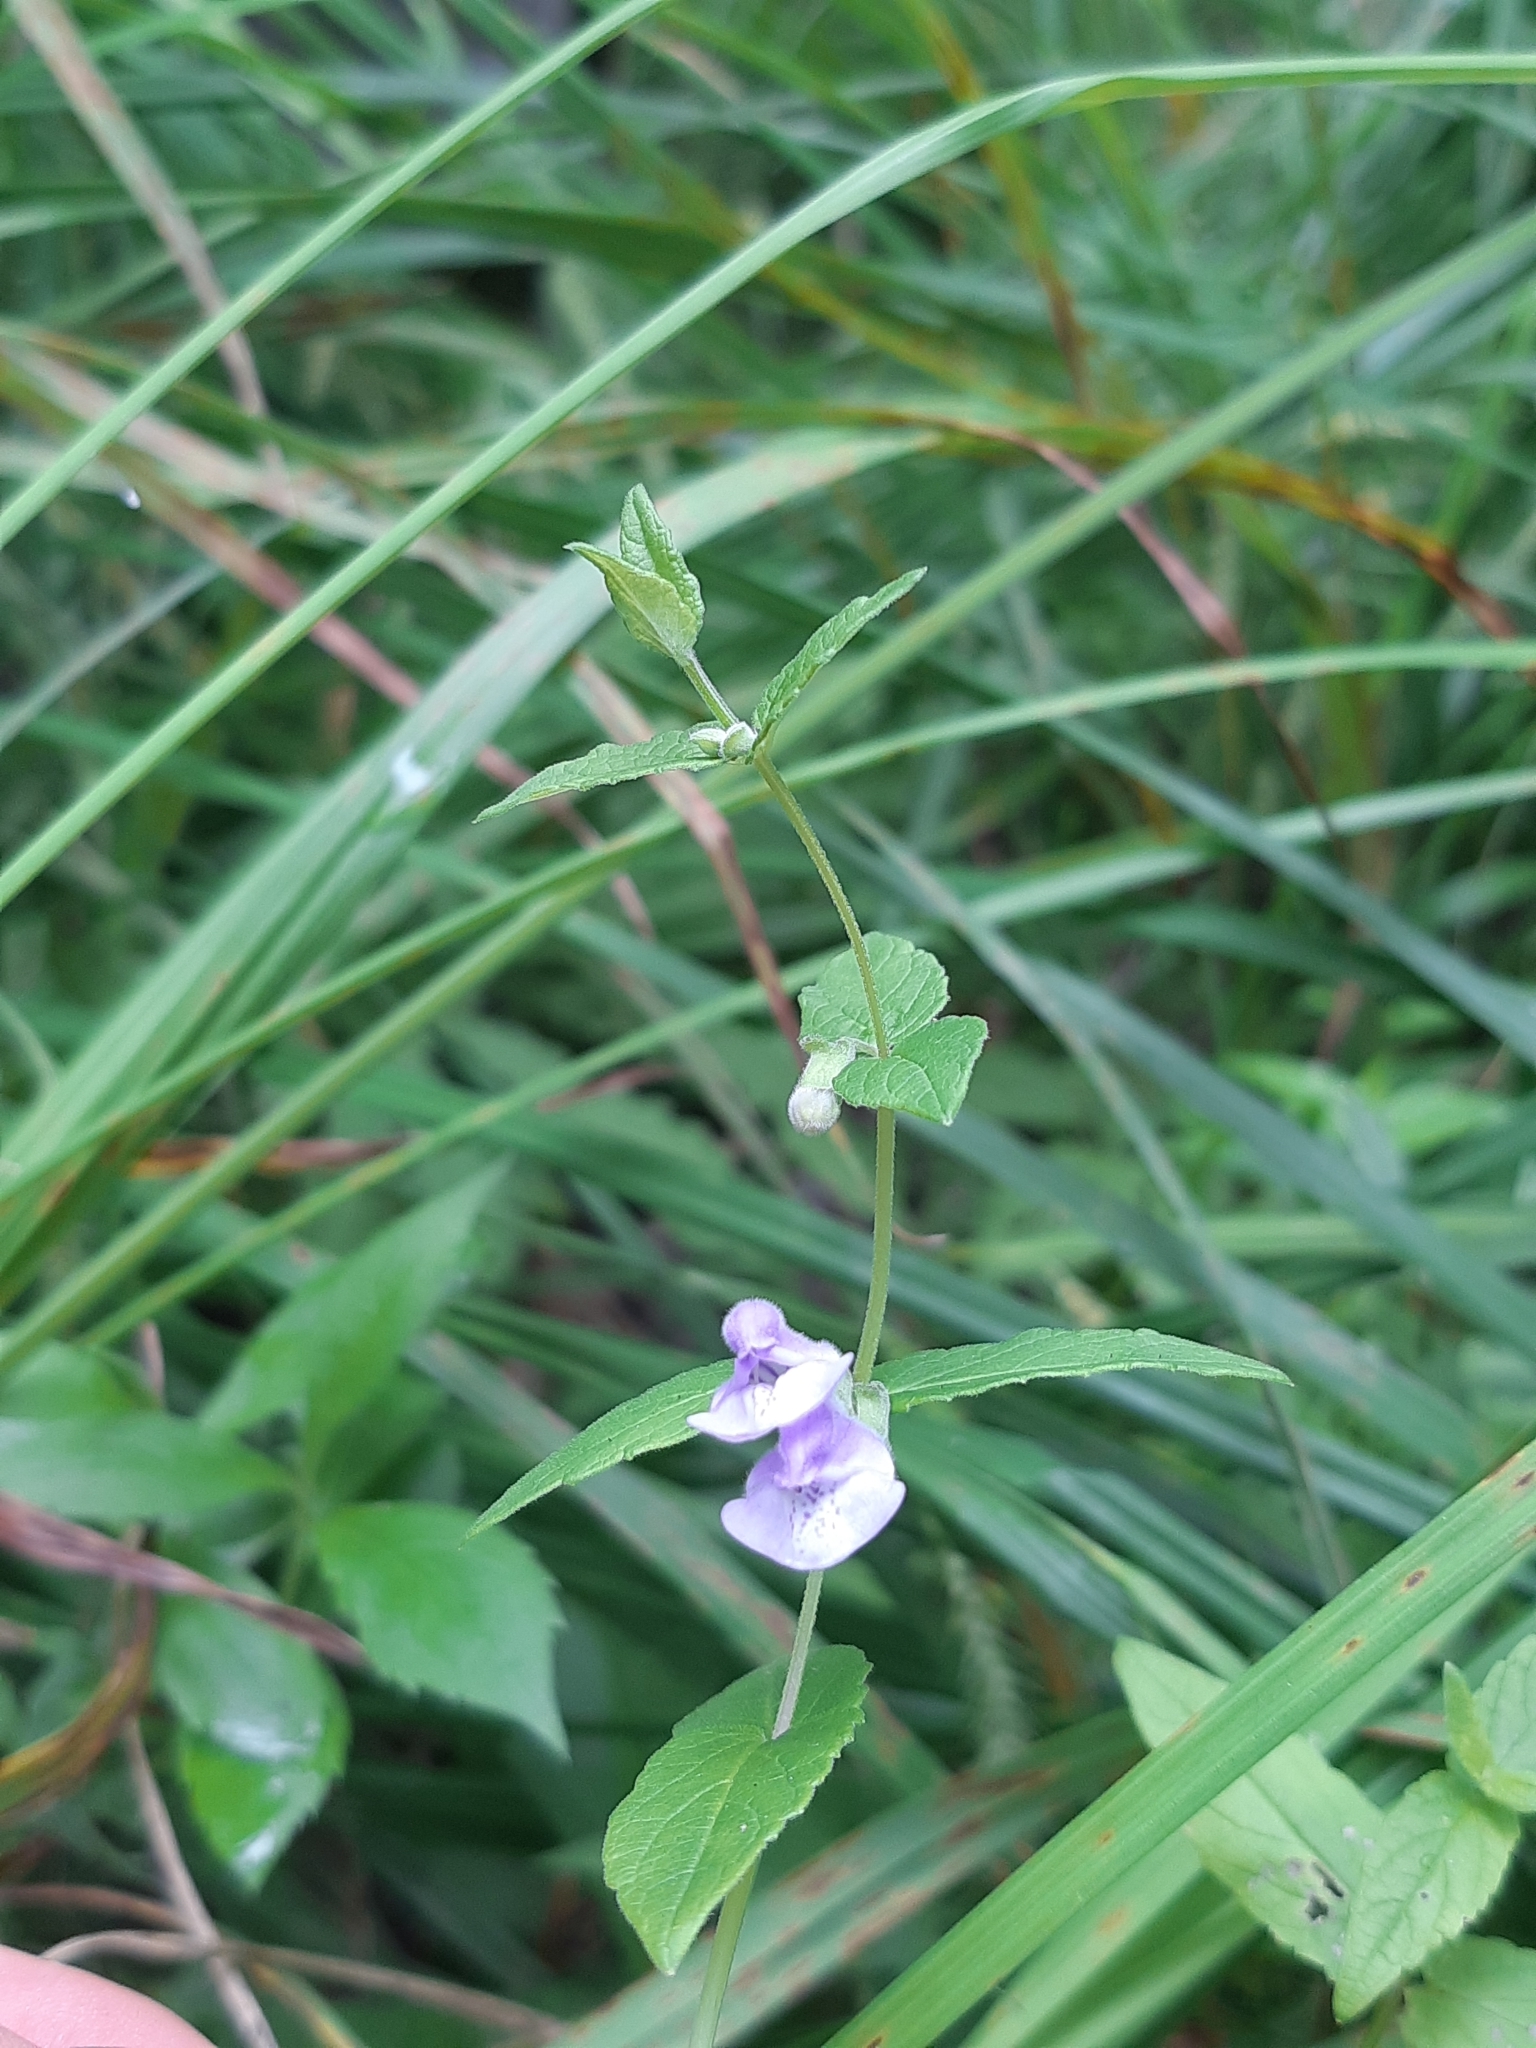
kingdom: Plantae
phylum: Tracheophyta
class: Magnoliopsida
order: Lamiales
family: Lamiaceae
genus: Scutellaria
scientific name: Scutellaria galericulata
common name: Skullcap
